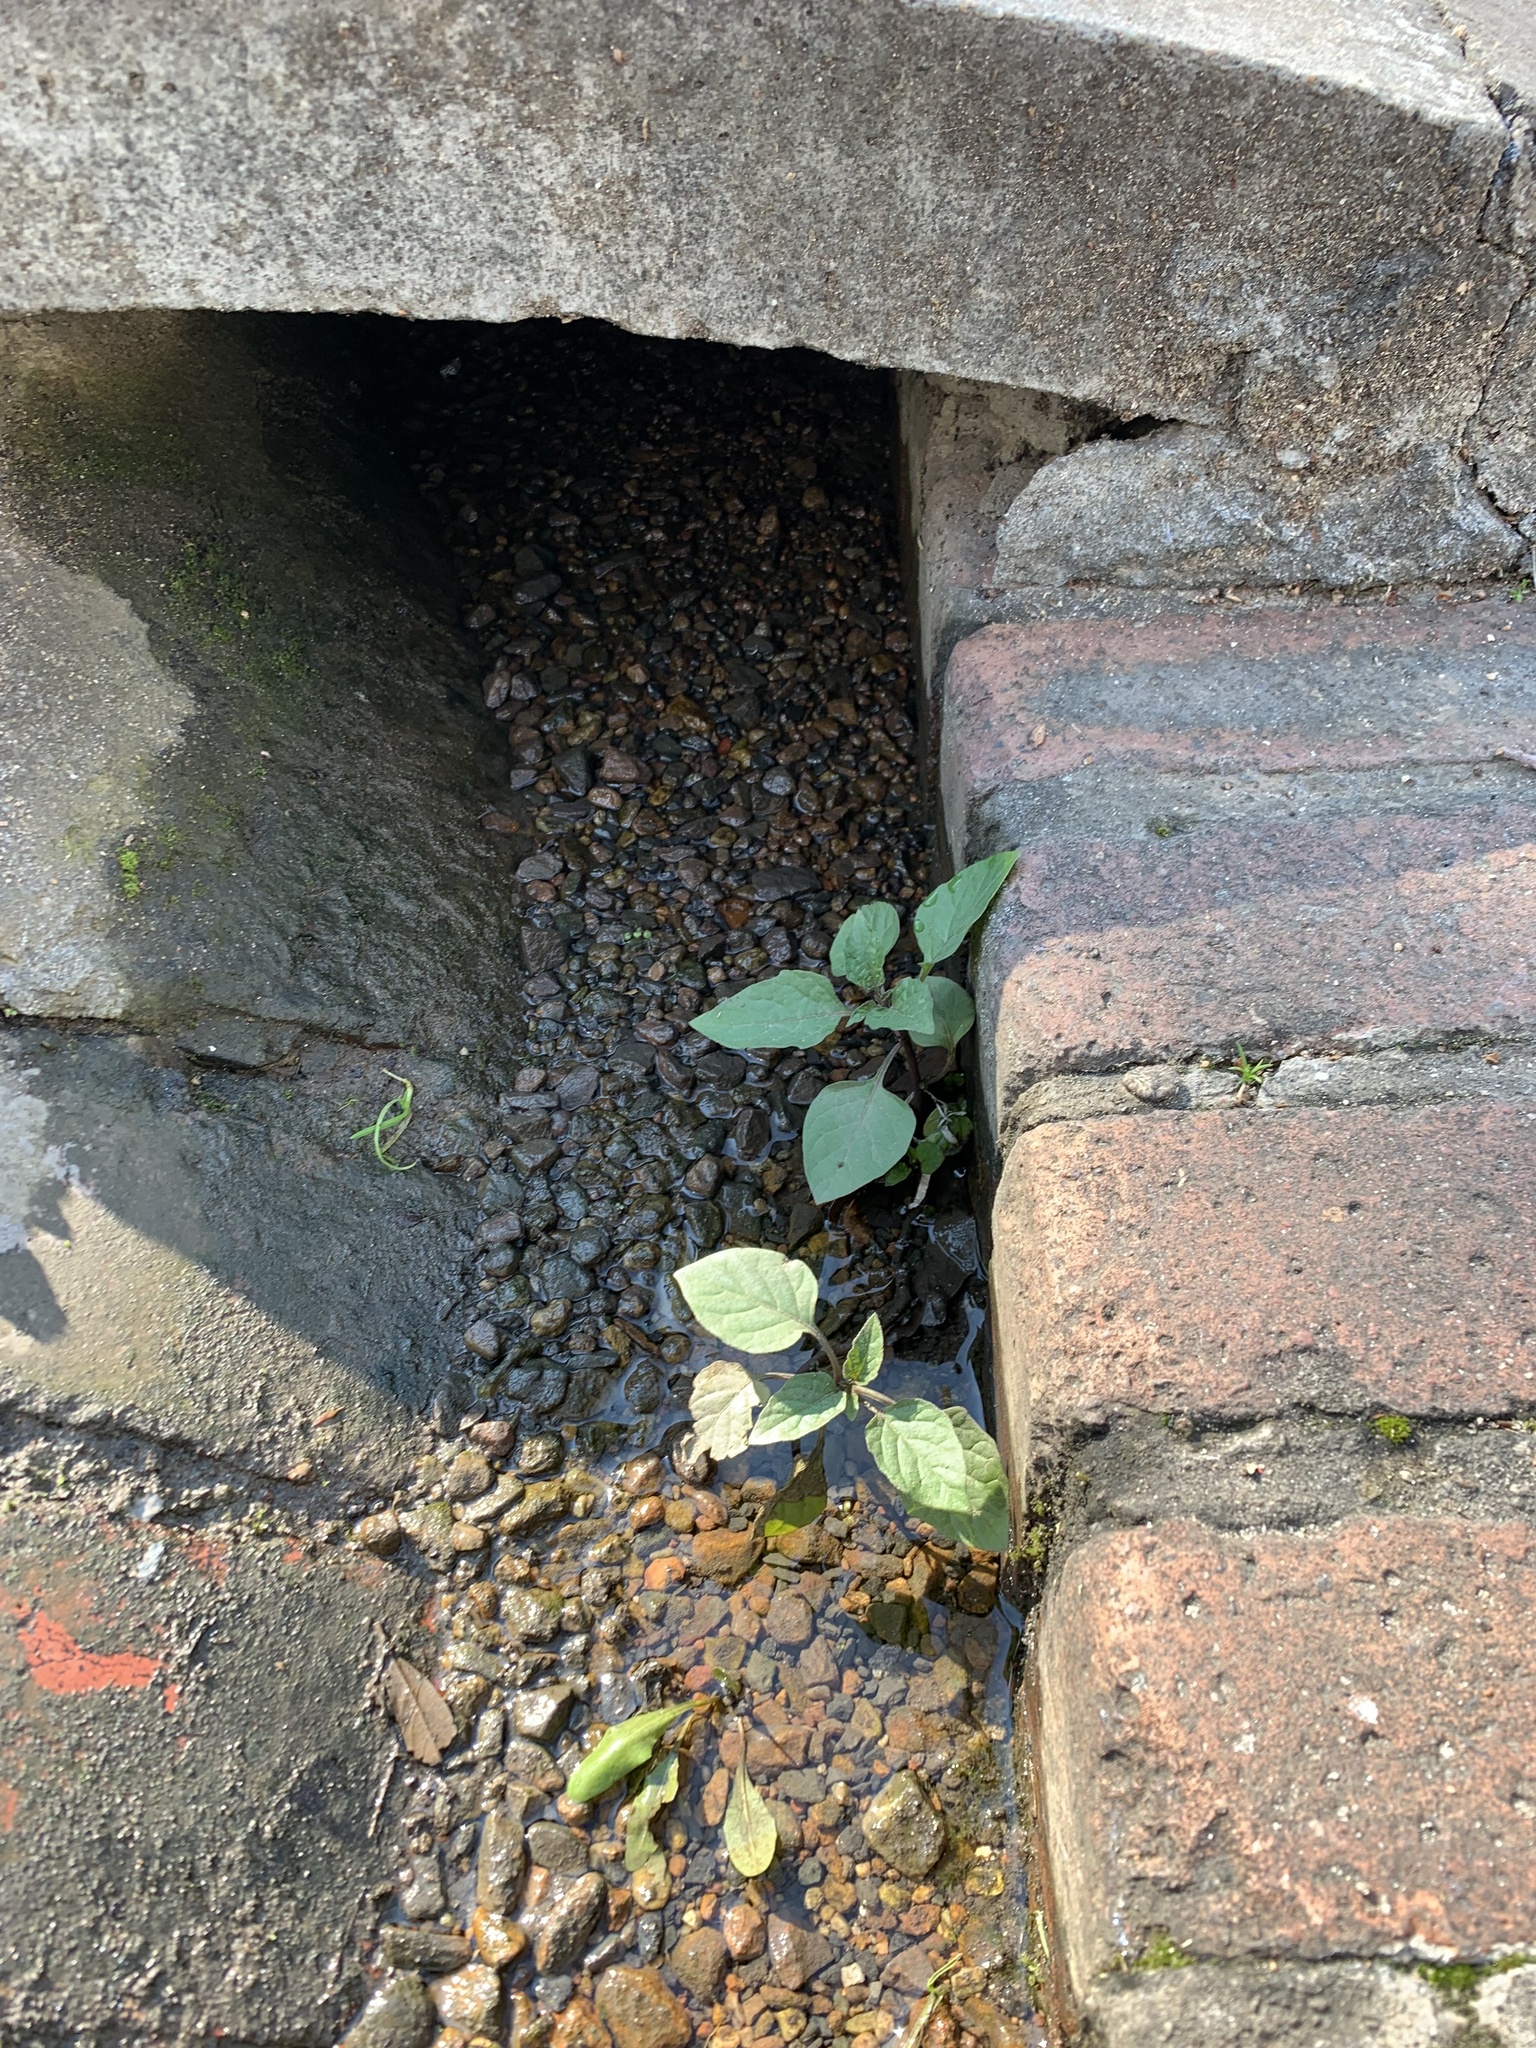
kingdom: Plantae
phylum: Tracheophyta
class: Magnoliopsida
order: Solanales
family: Solanaceae
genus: Solanum
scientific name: Solanum nigrum
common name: Black nightshade
